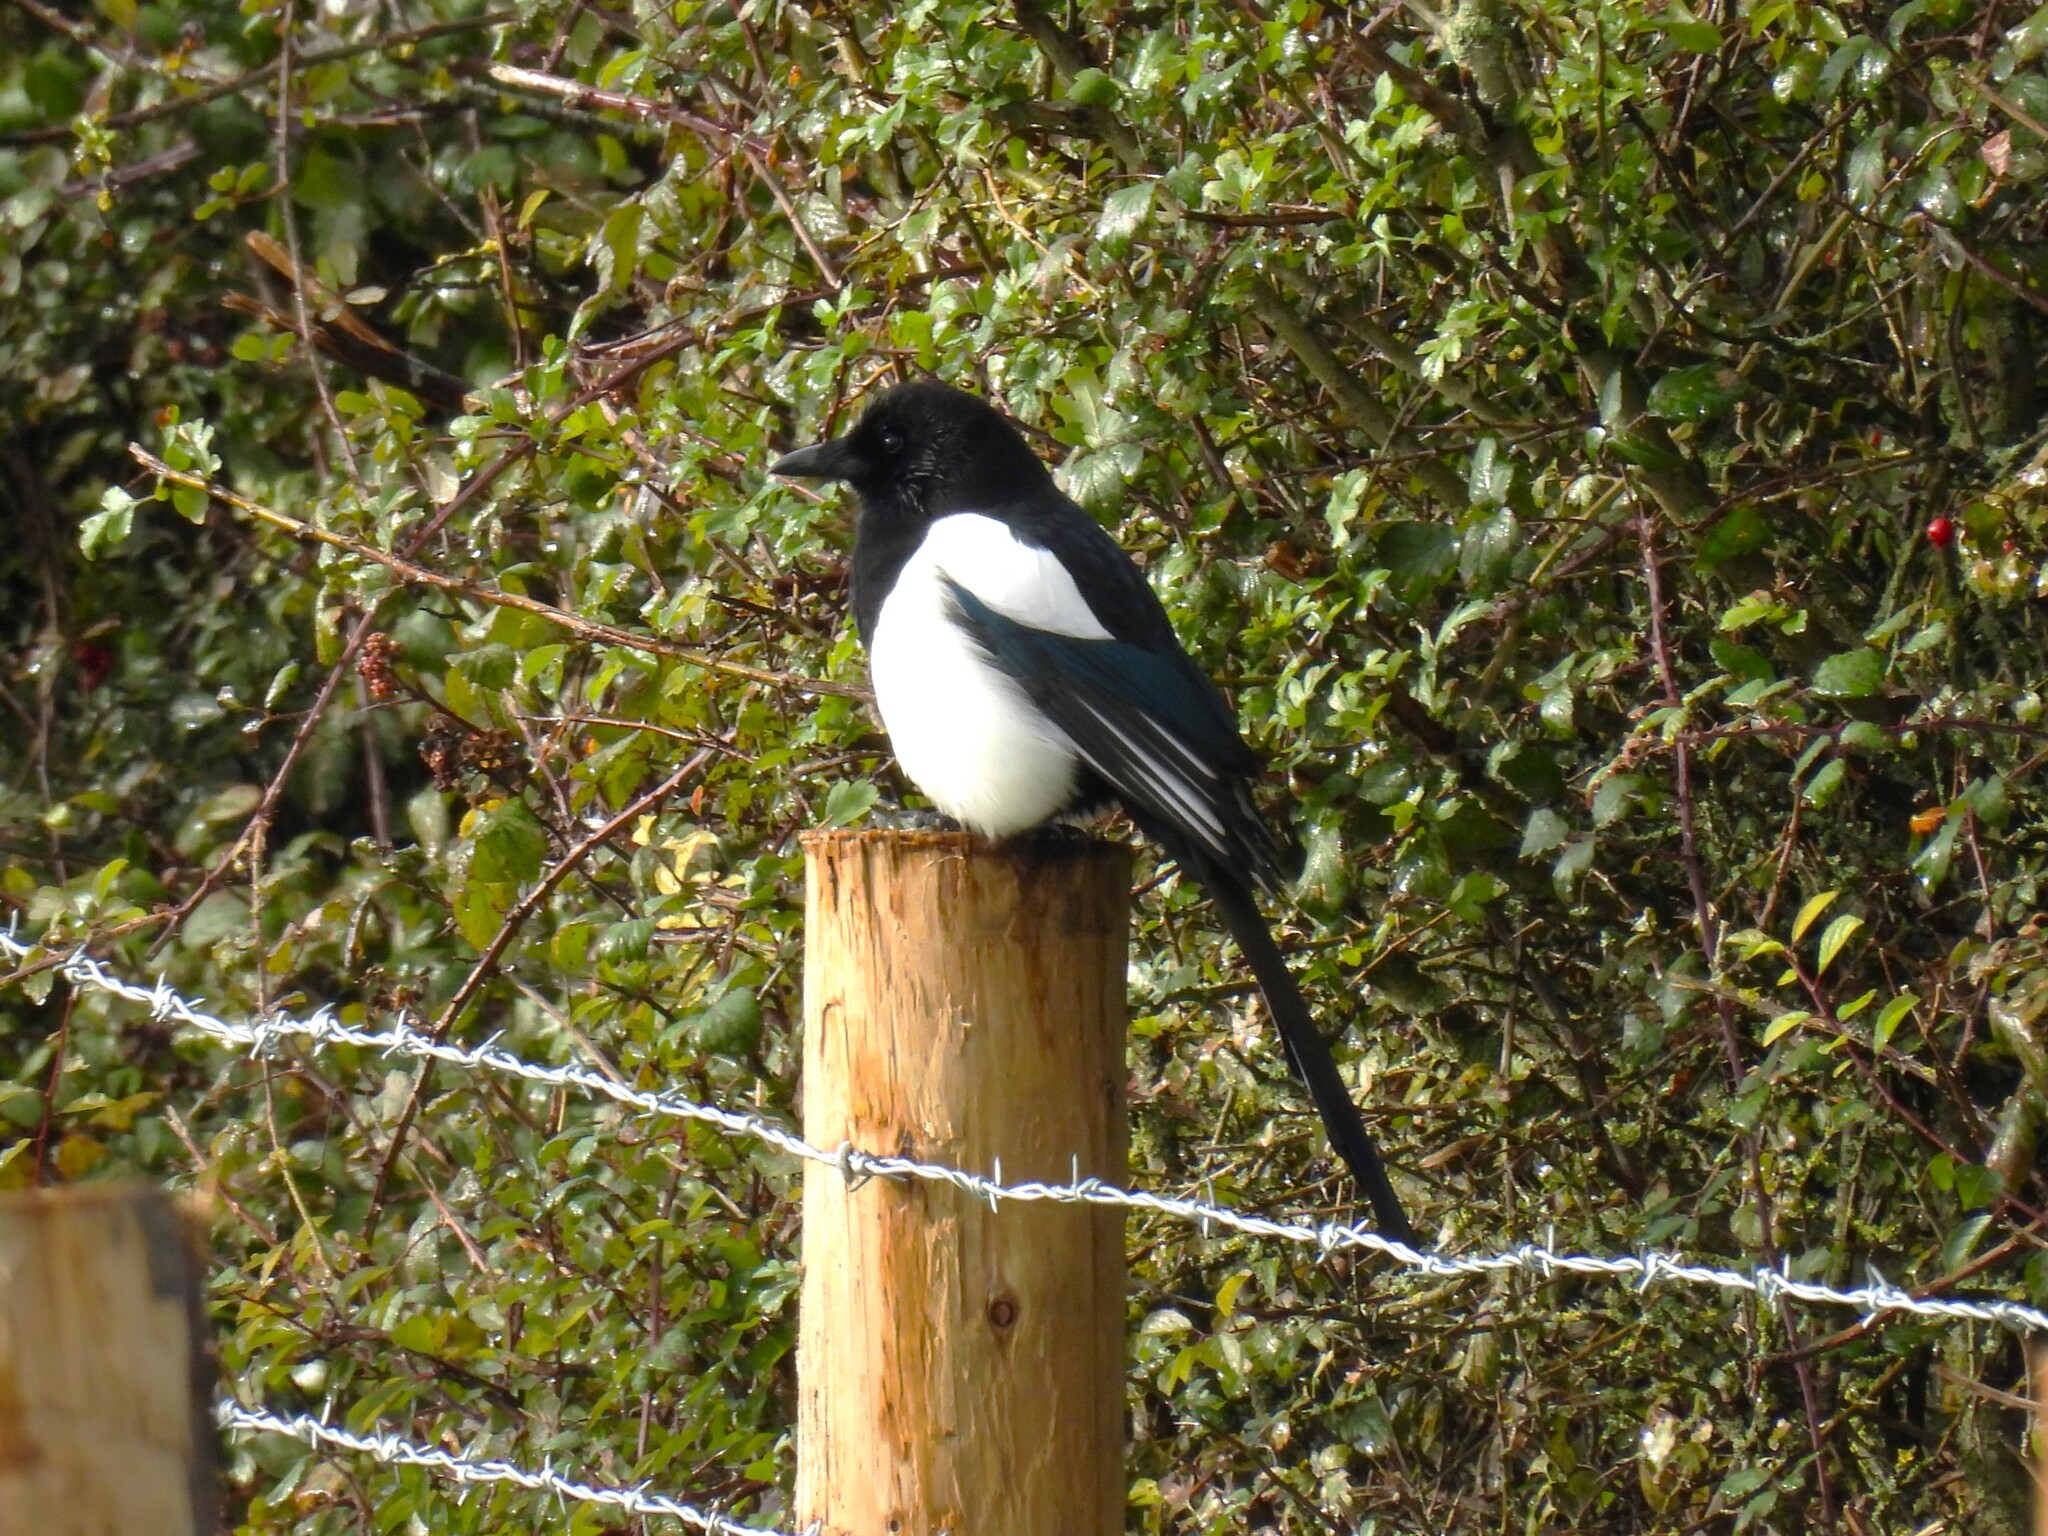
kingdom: Animalia
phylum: Chordata
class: Aves
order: Passeriformes
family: Corvidae
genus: Pica
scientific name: Pica pica
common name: Eurasian magpie
